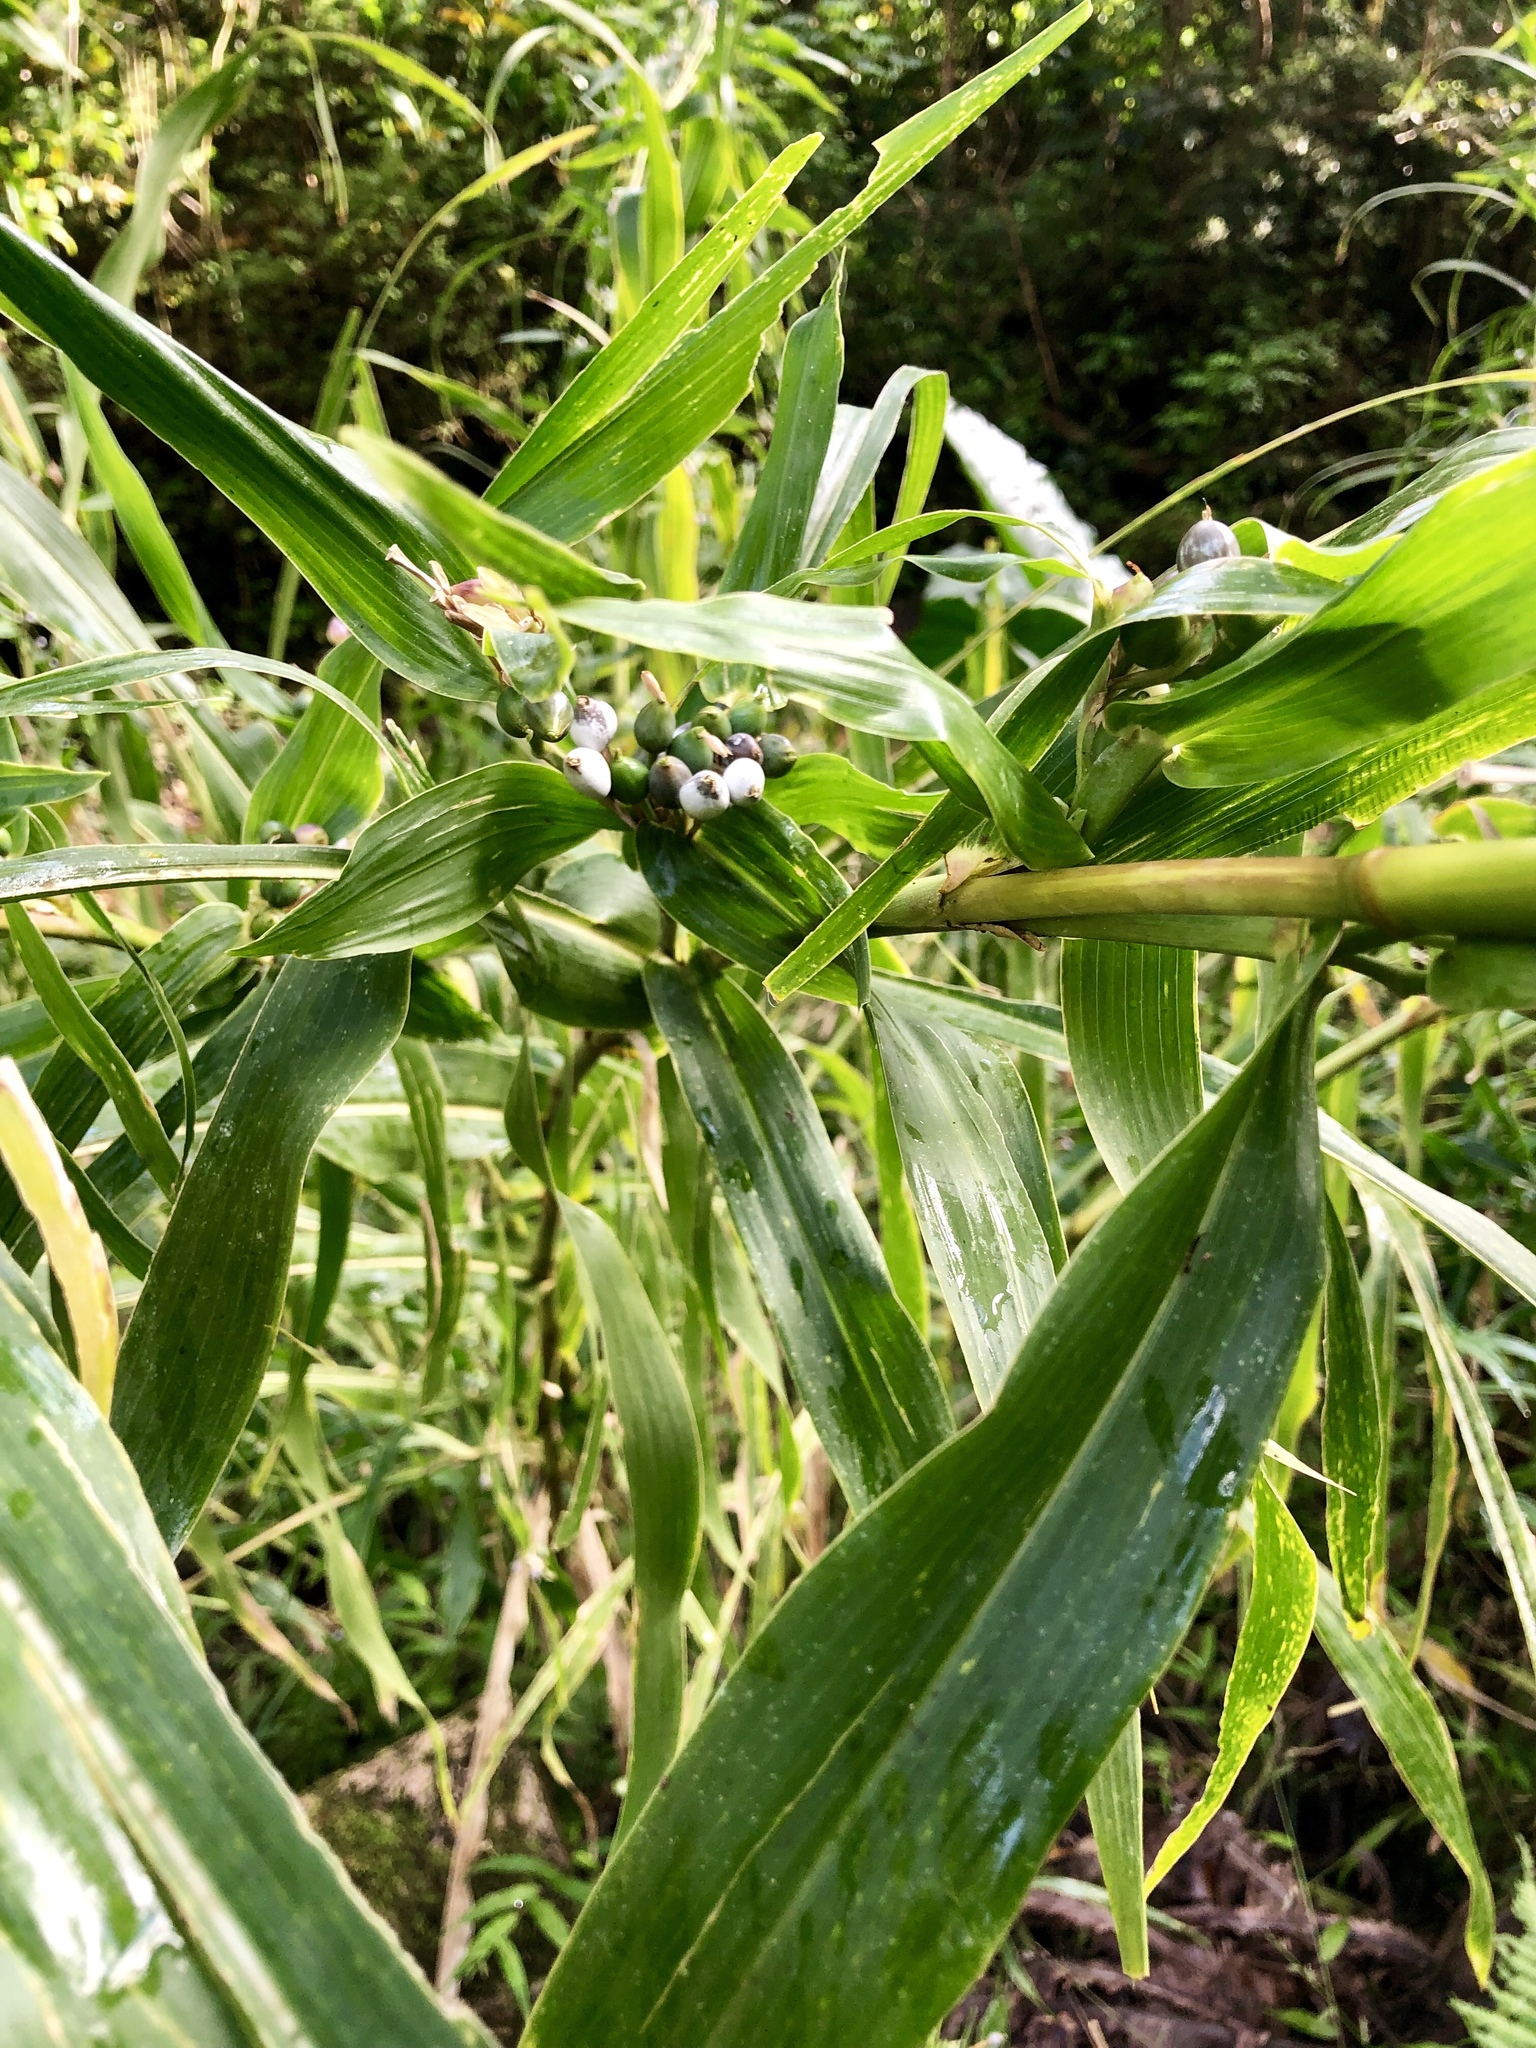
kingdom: Plantae
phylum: Tracheophyta
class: Liliopsida
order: Poales
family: Poaceae
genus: Coix
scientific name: Coix lacryma-jobi
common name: Job's tears
